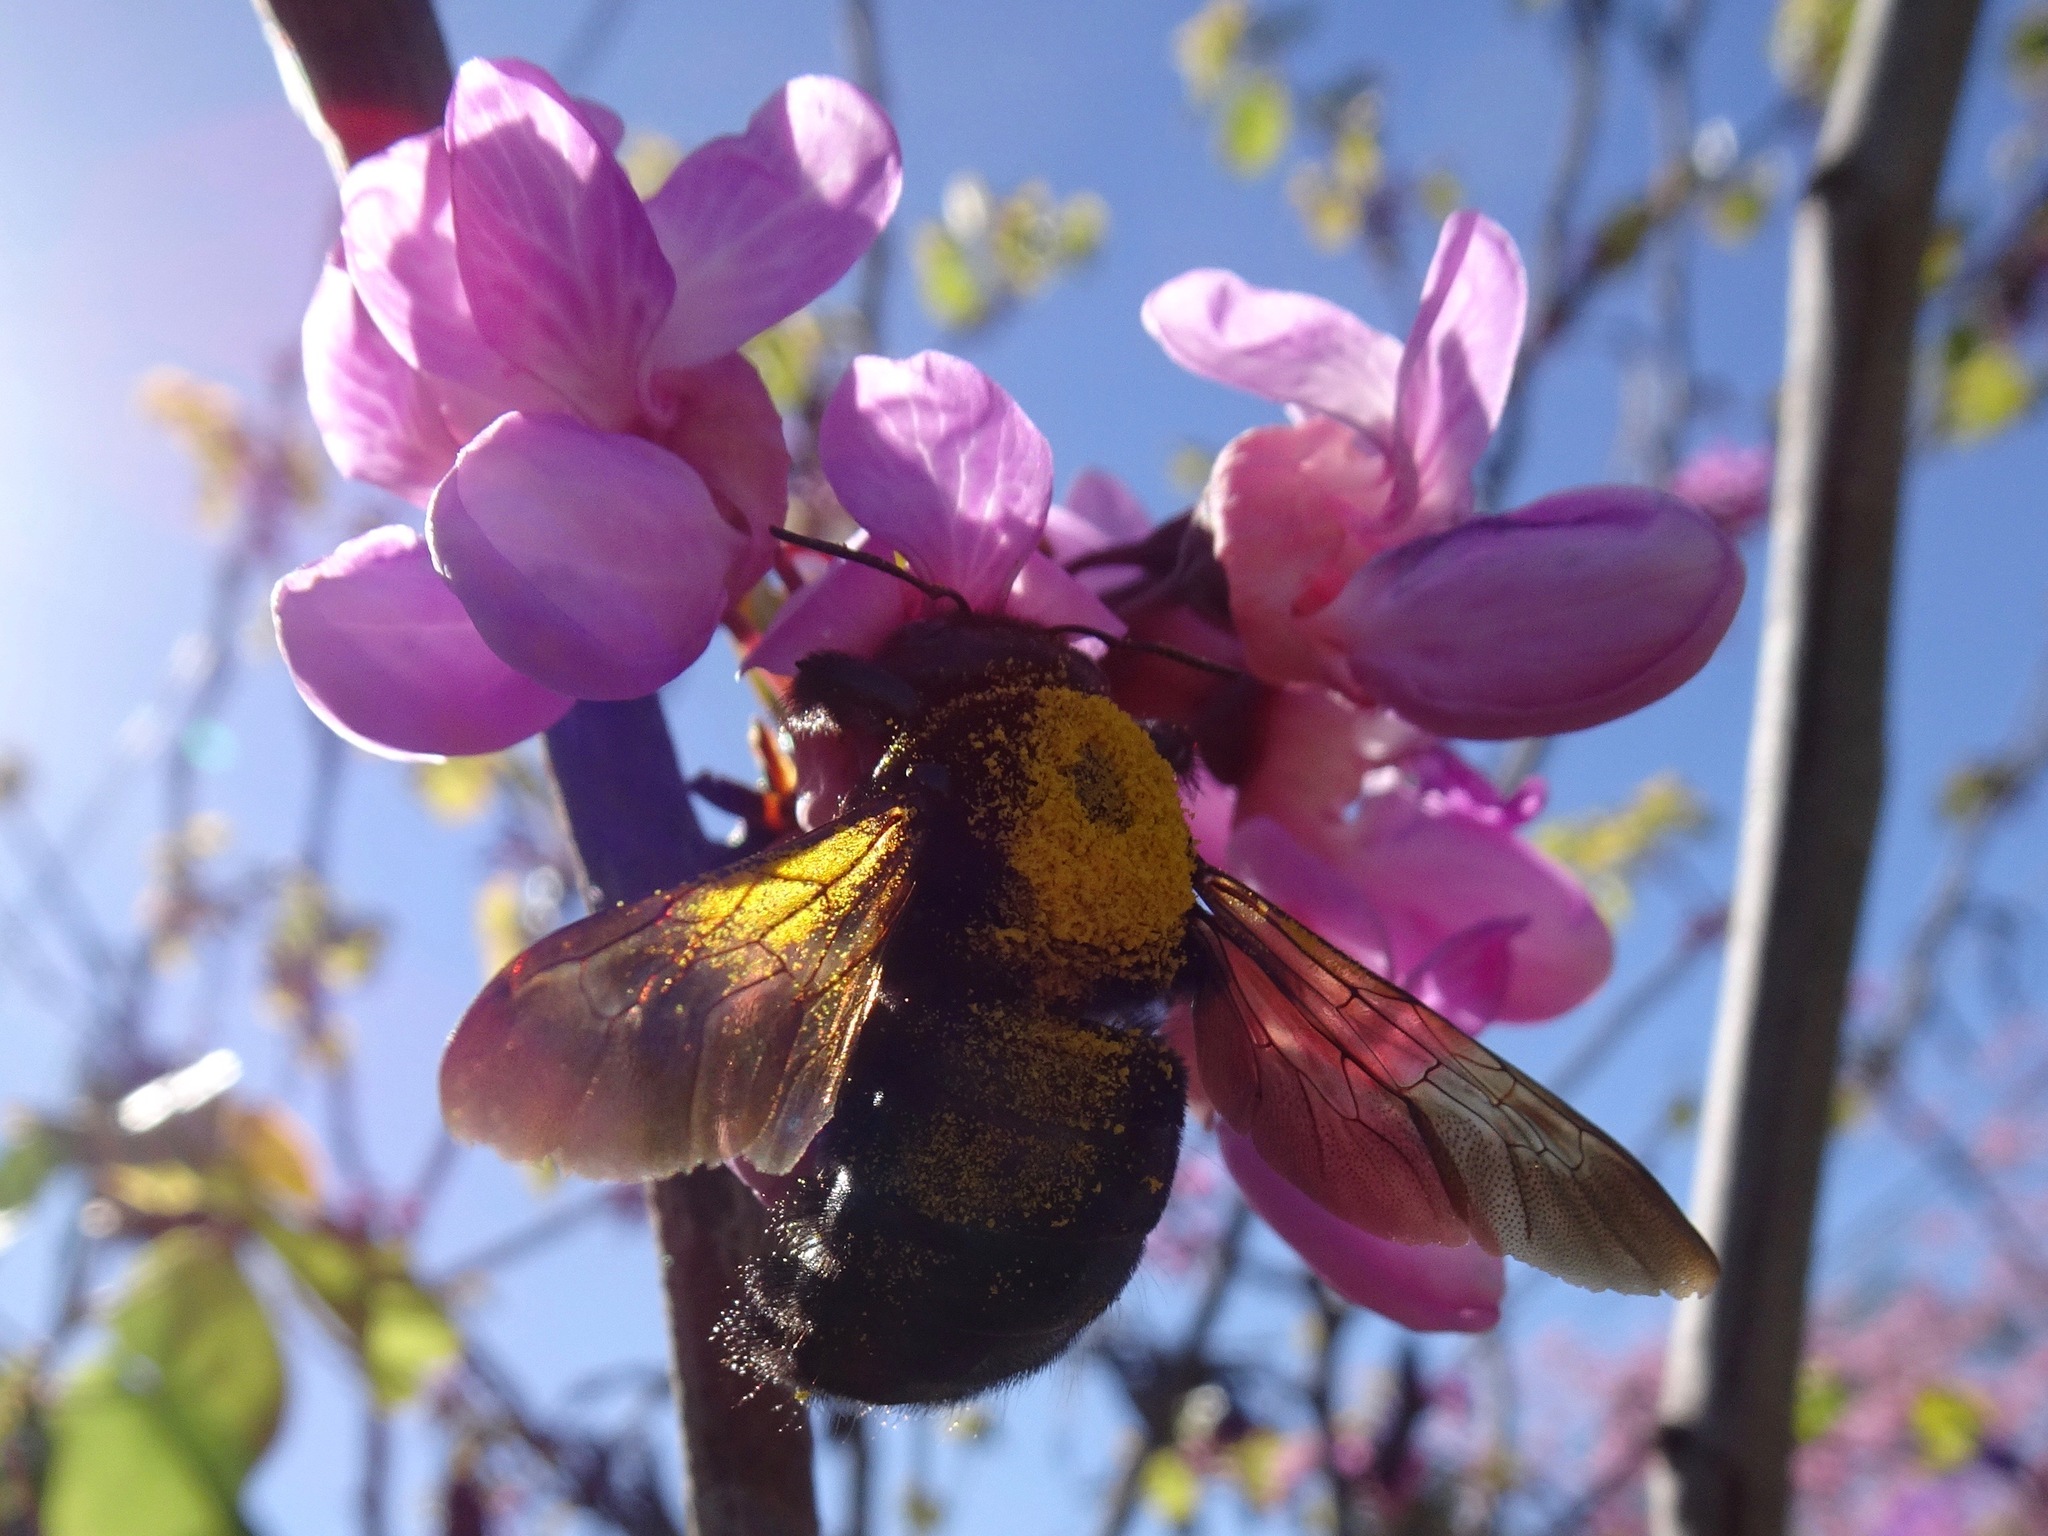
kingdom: Animalia
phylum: Arthropoda
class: Insecta
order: Hymenoptera
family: Apidae
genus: Xylocopa
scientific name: Xylocopa sonorina
